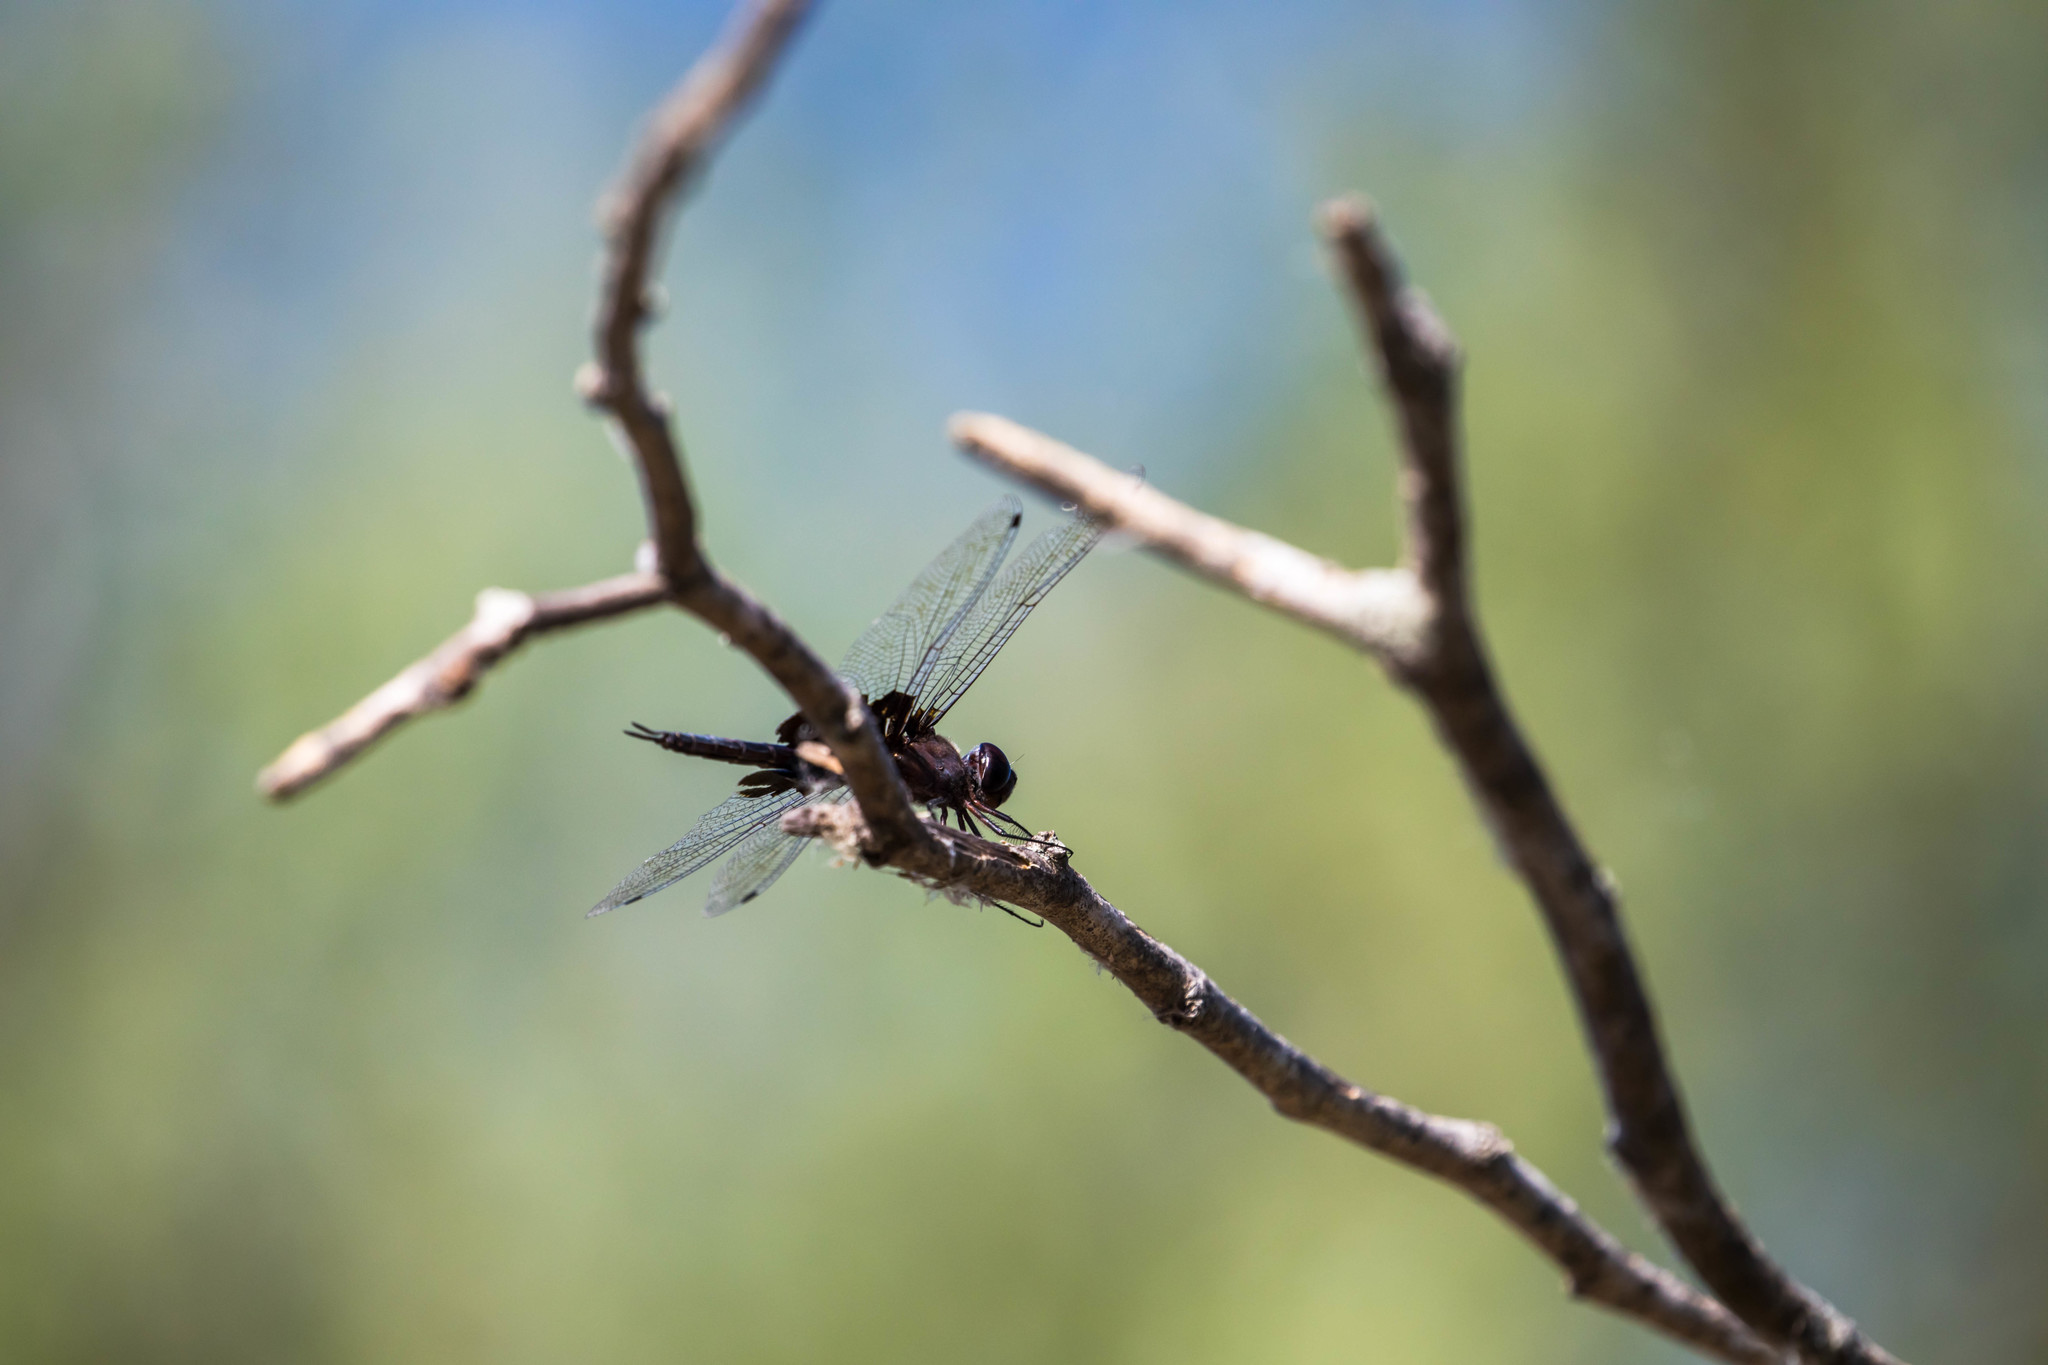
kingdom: Animalia
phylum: Arthropoda
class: Insecta
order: Odonata
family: Libellulidae
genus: Tramea
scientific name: Tramea lacerata
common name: Black saddlebags
